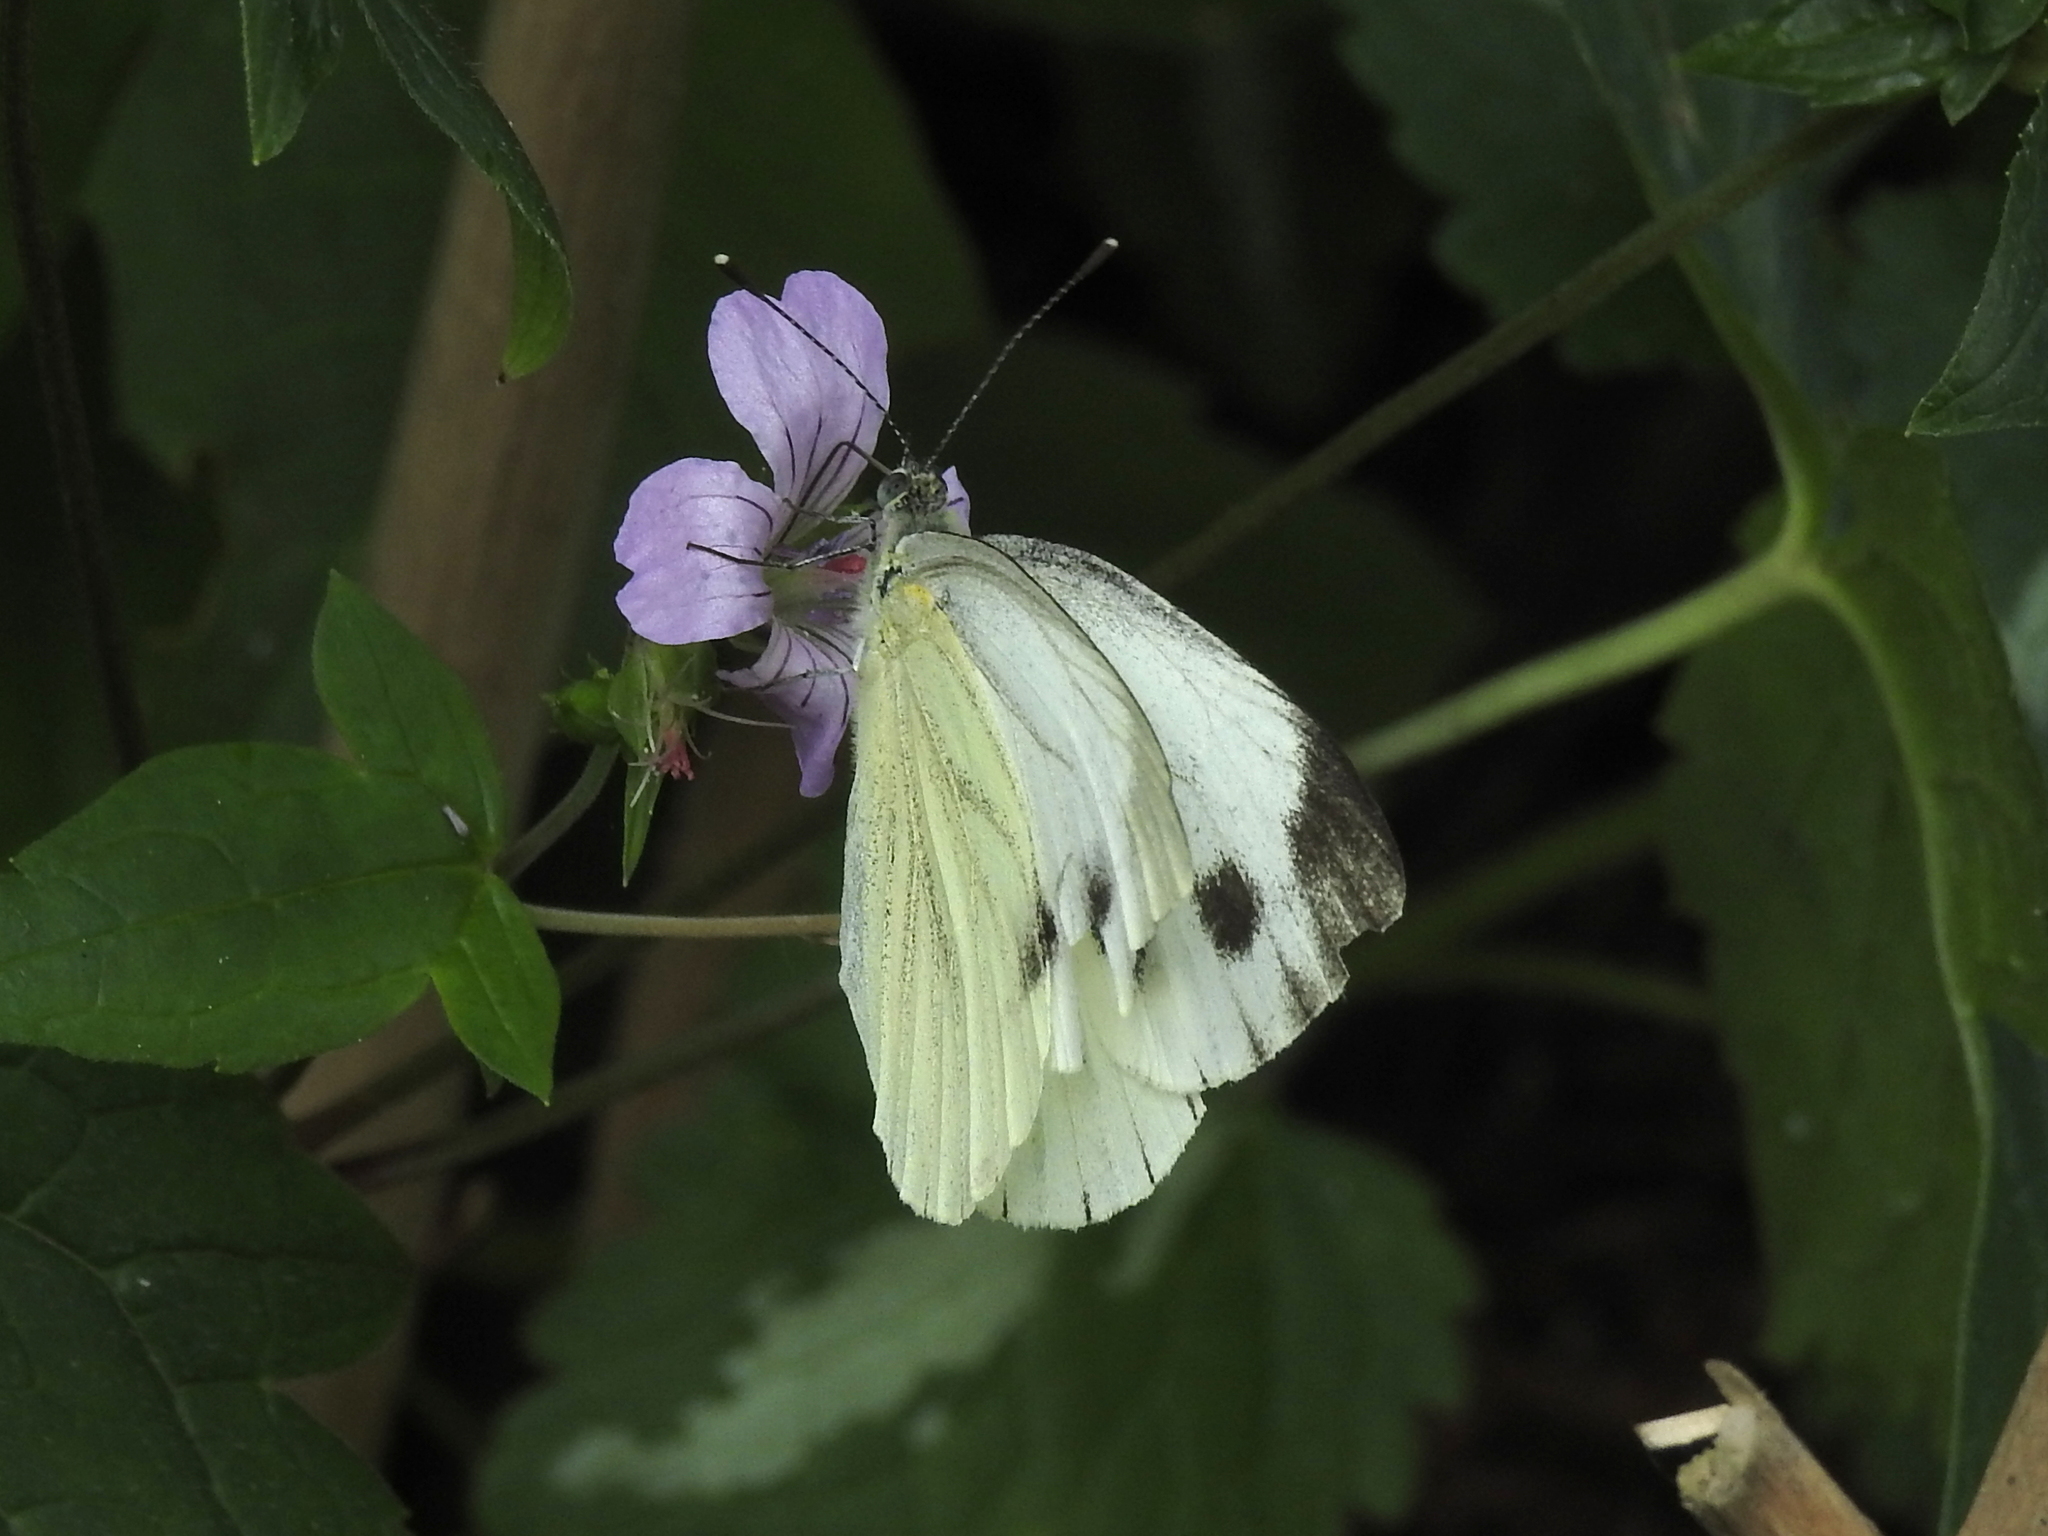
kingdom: Animalia
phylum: Arthropoda
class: Insecta
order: Lepidoptera
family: Pieridae
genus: Pieris
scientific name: Pieris napi
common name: Green-veined white
